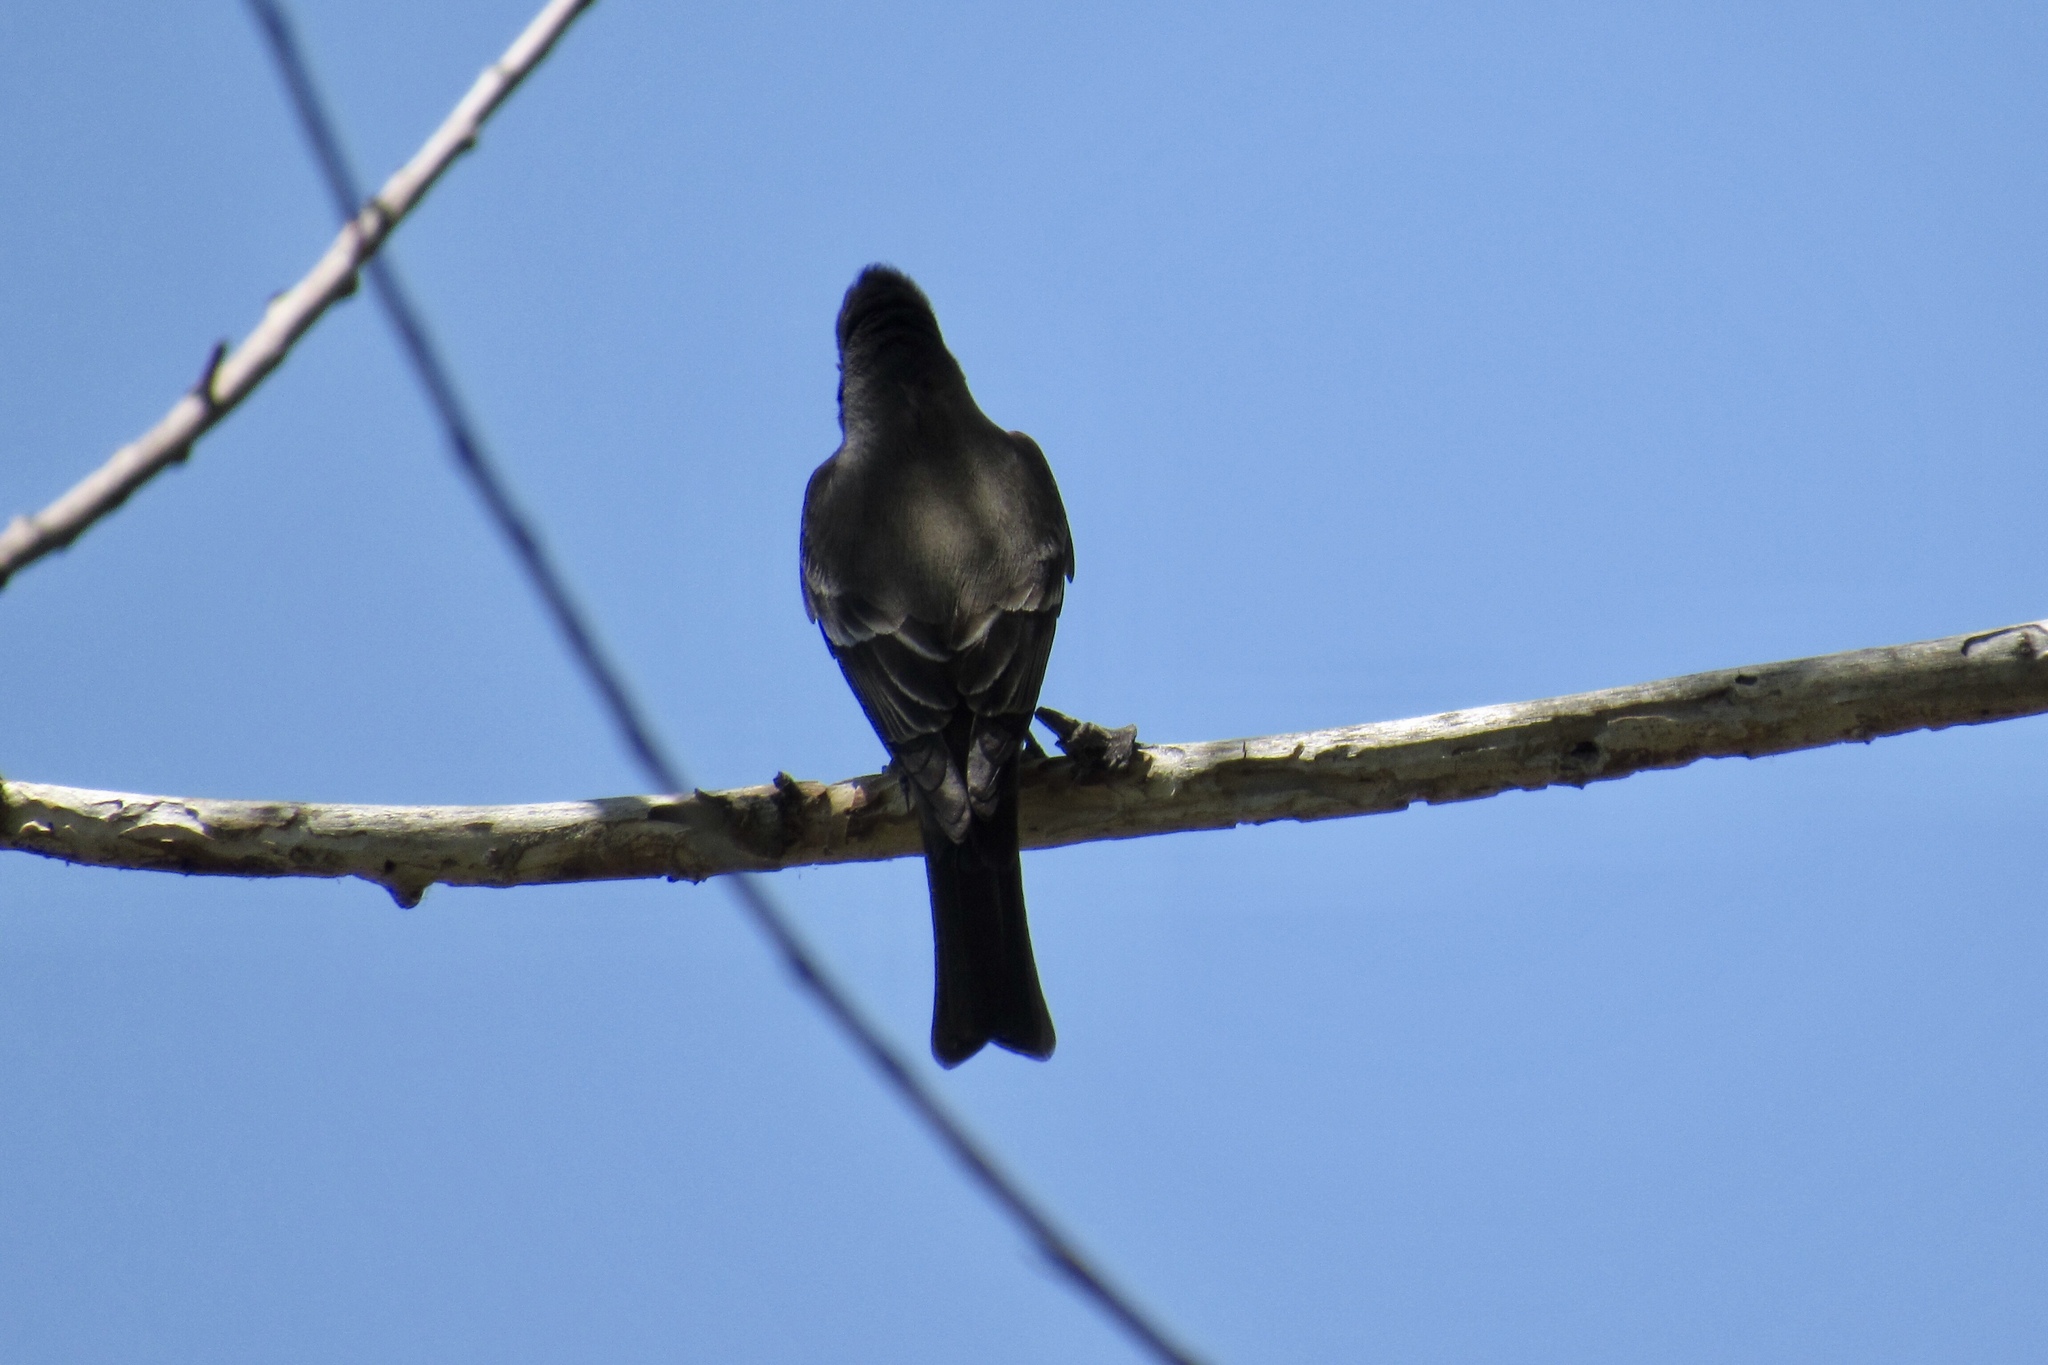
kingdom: Animalia
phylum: Chordata
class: Aves
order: Passeriformes
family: Tyrannidae
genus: Contopus
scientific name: Contopus sordidulus
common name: Western wood-pewee
